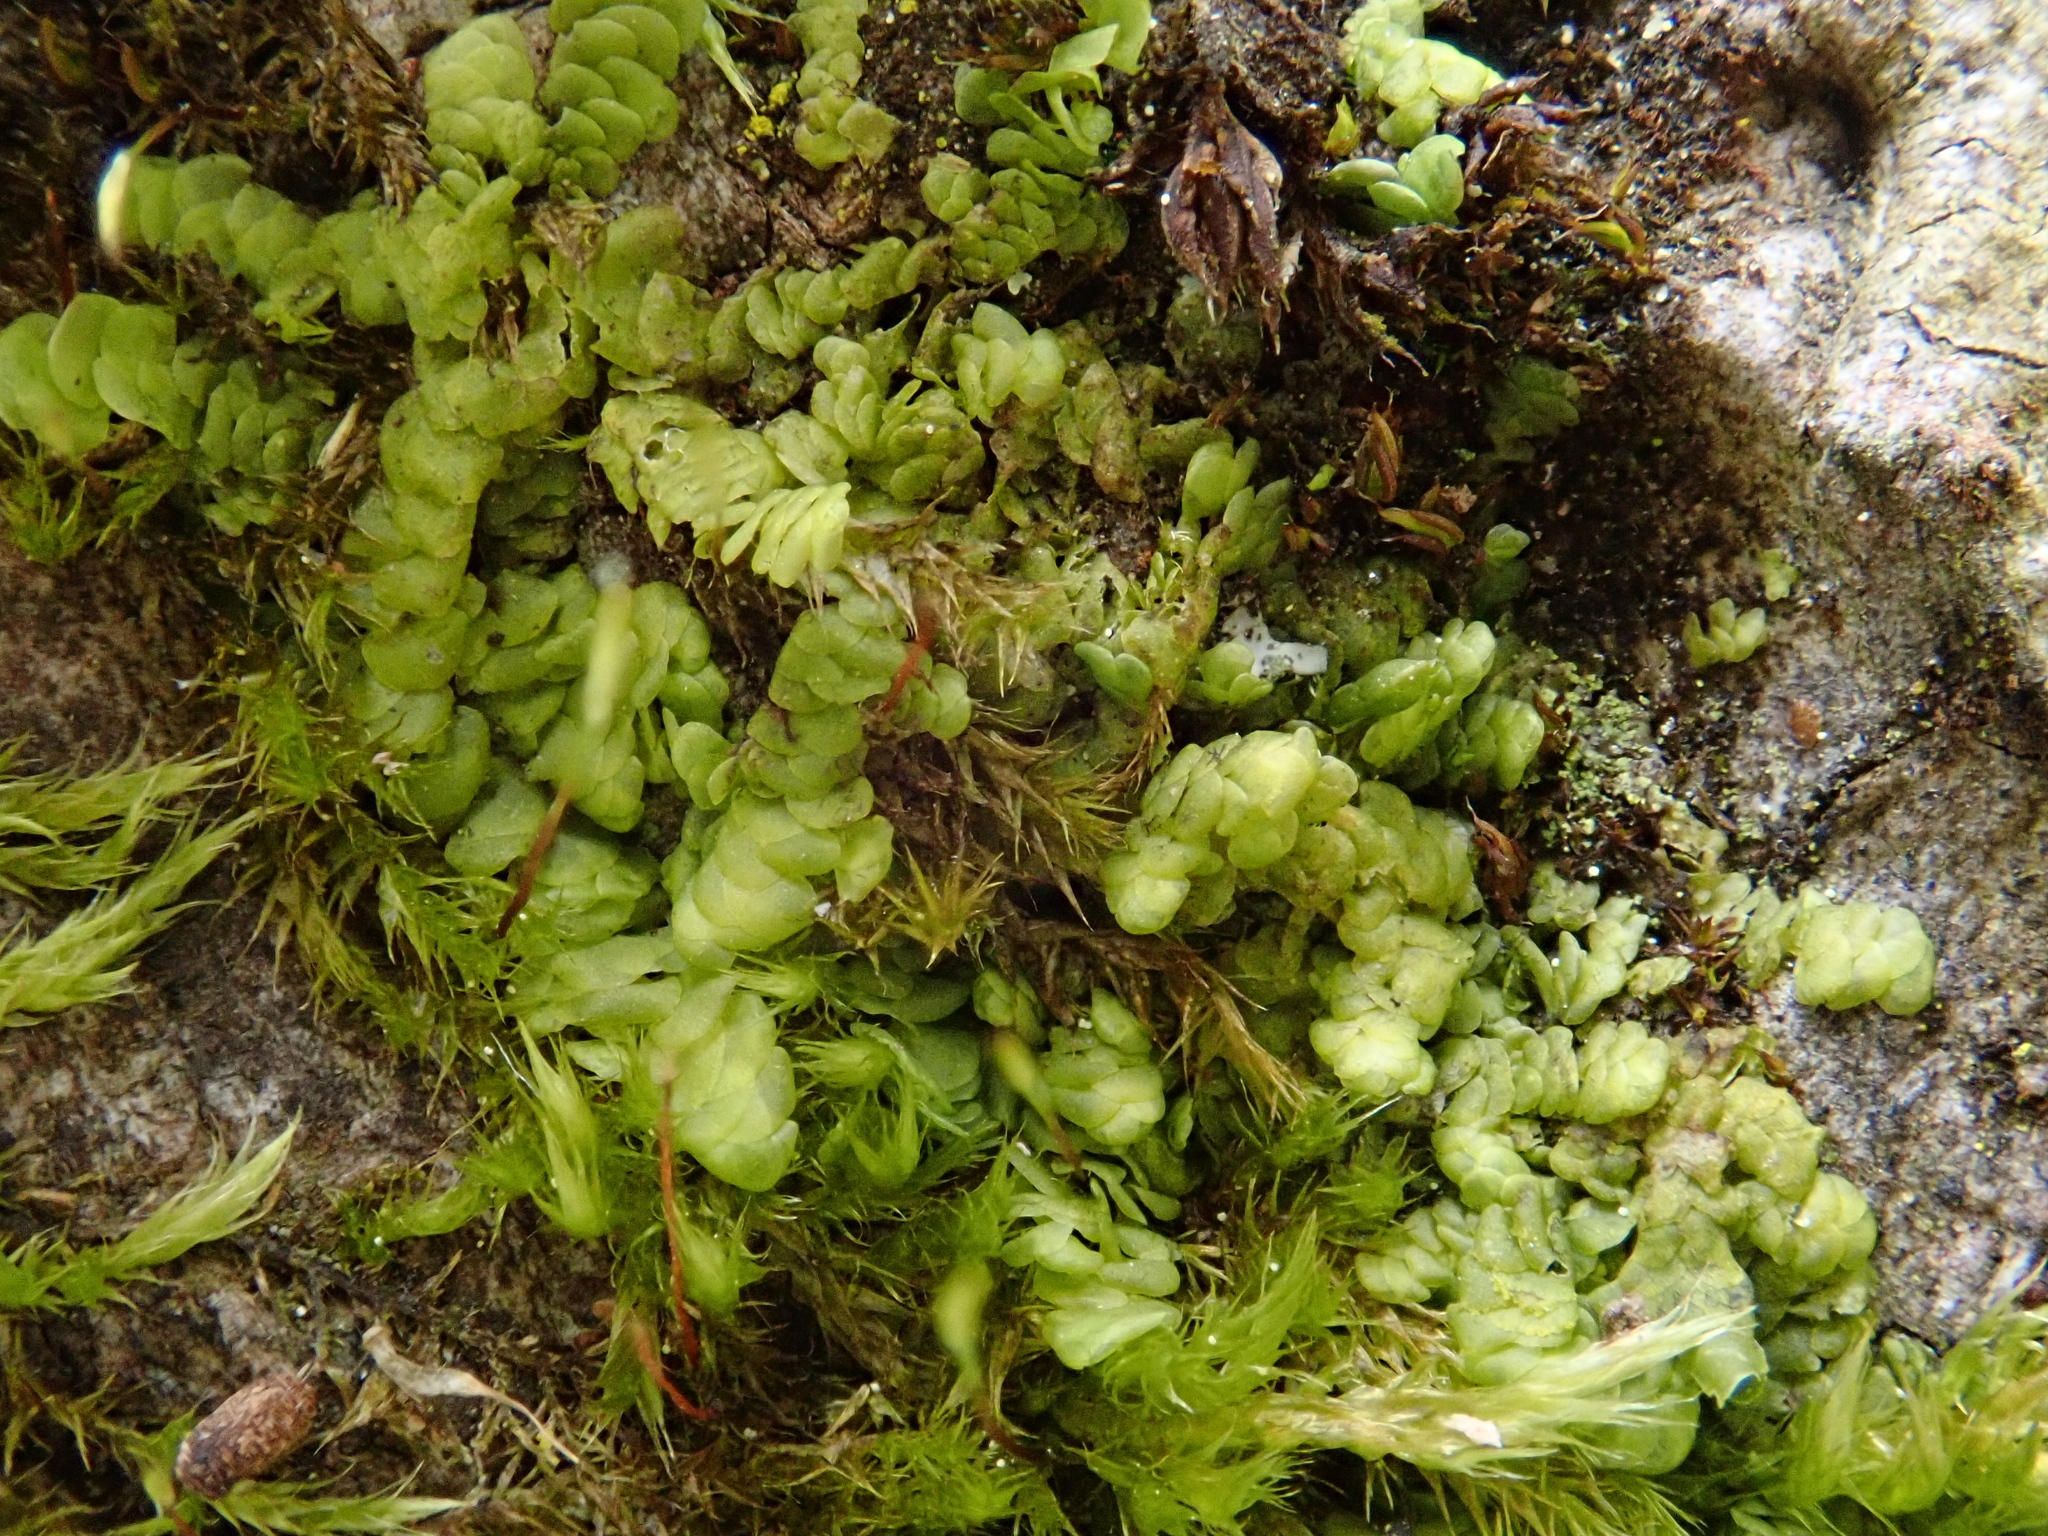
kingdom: Plantae
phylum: Marchantiophyta
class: Jungermanniopsida
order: Porellales
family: Radulaceae
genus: Radula
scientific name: Radula complanata
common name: Flat-leaved scalewort
